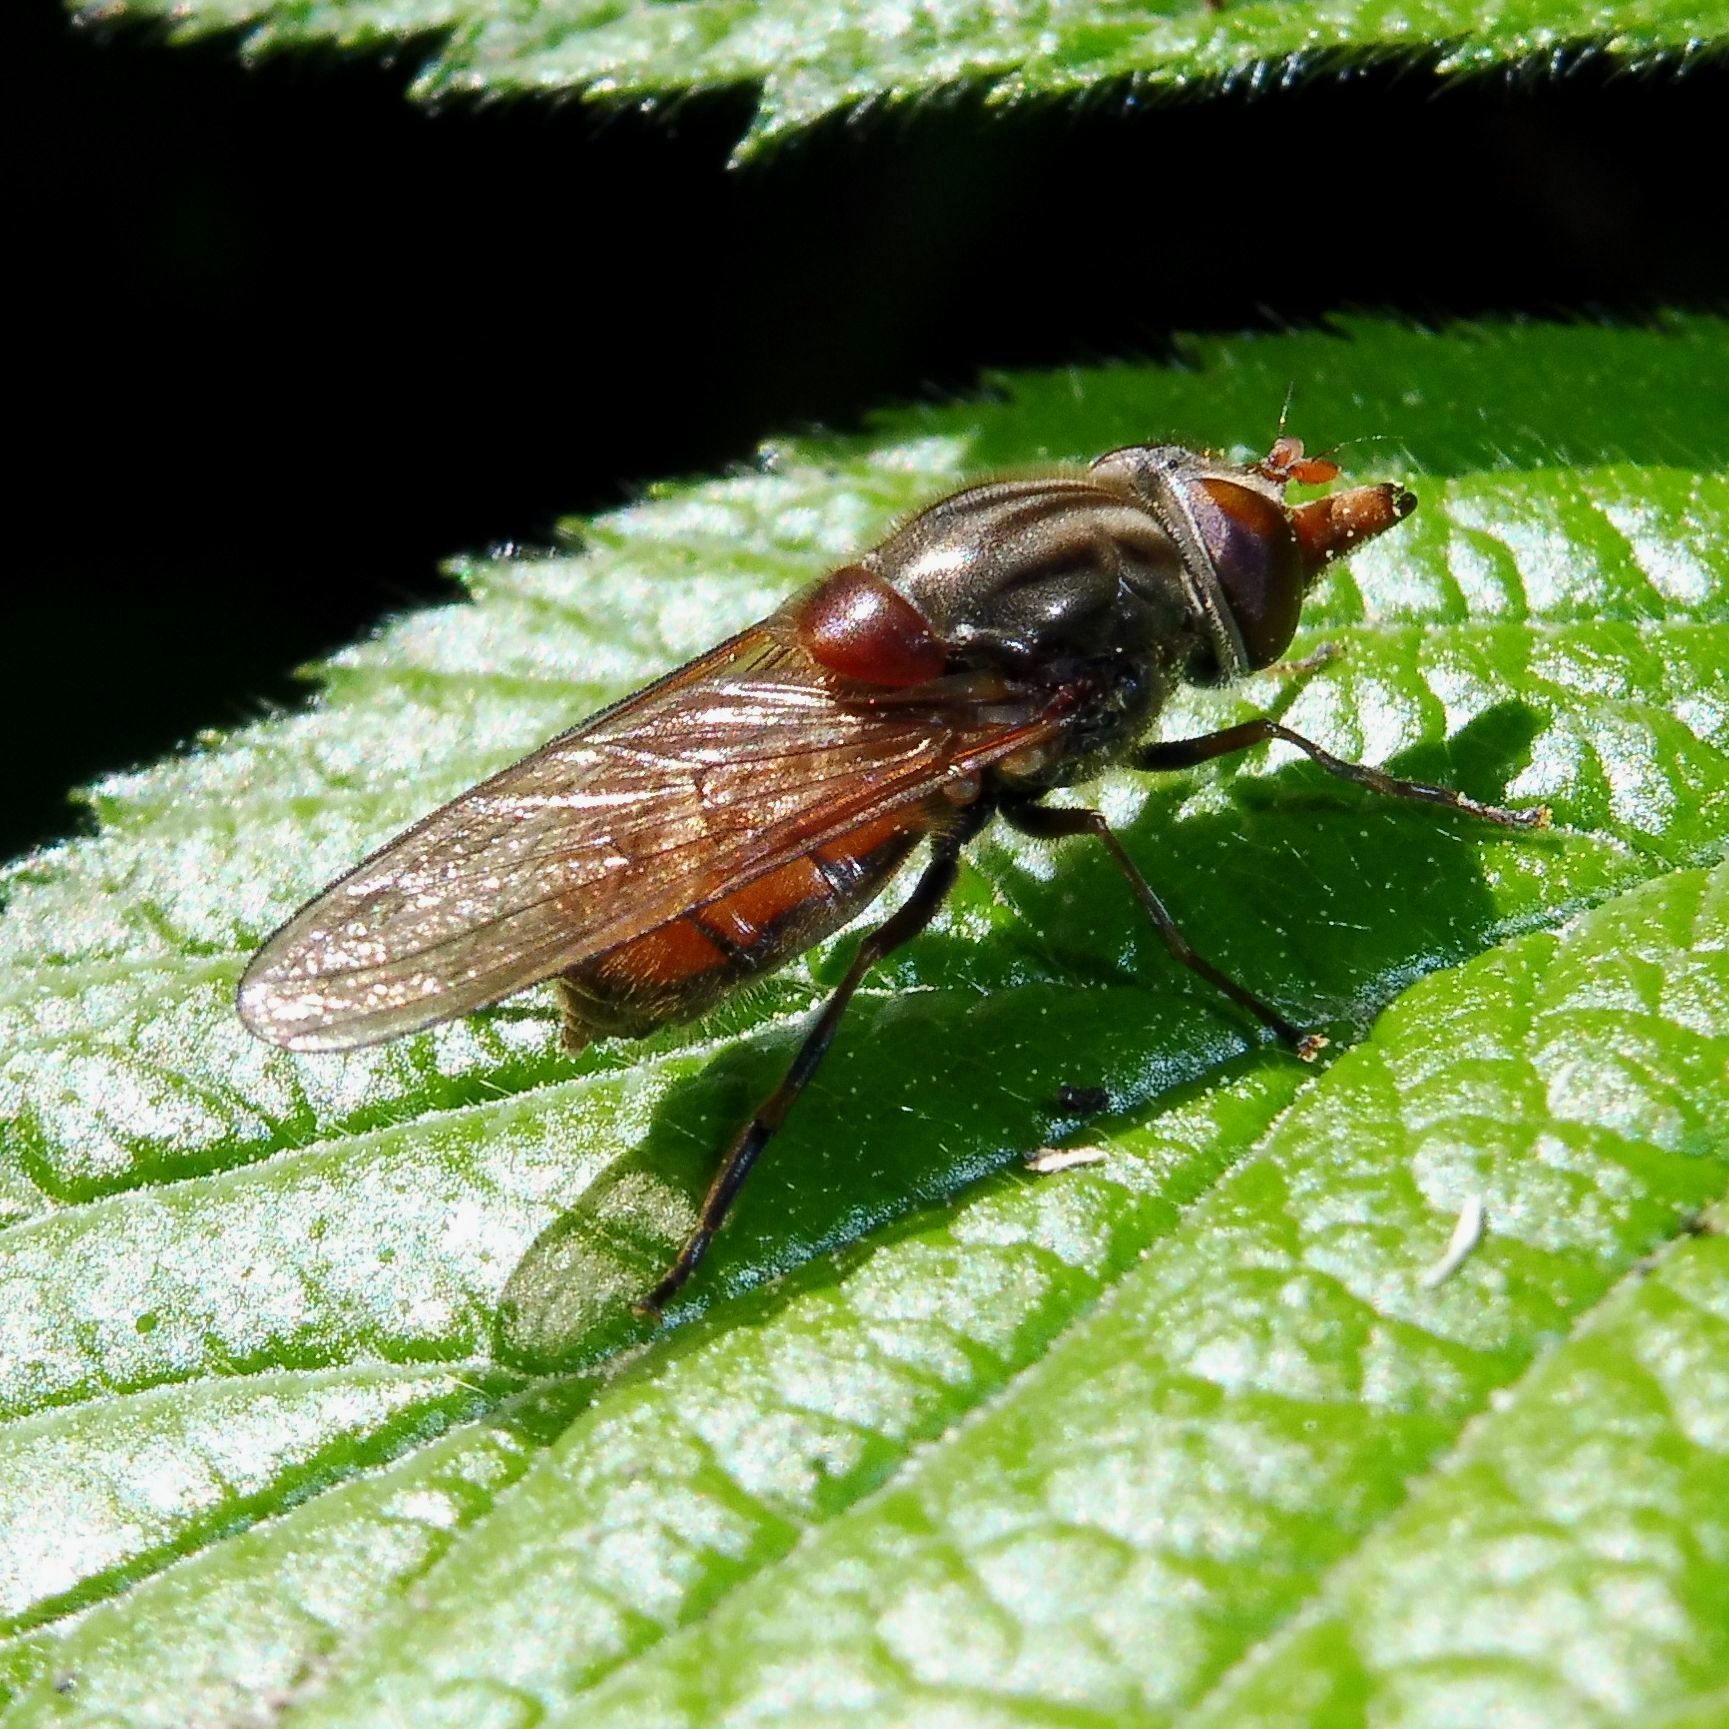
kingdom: Animalia
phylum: Arthropoda
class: Insecta
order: Diptera
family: Syrphidae
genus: Rhingia
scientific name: Rhingia campestris
